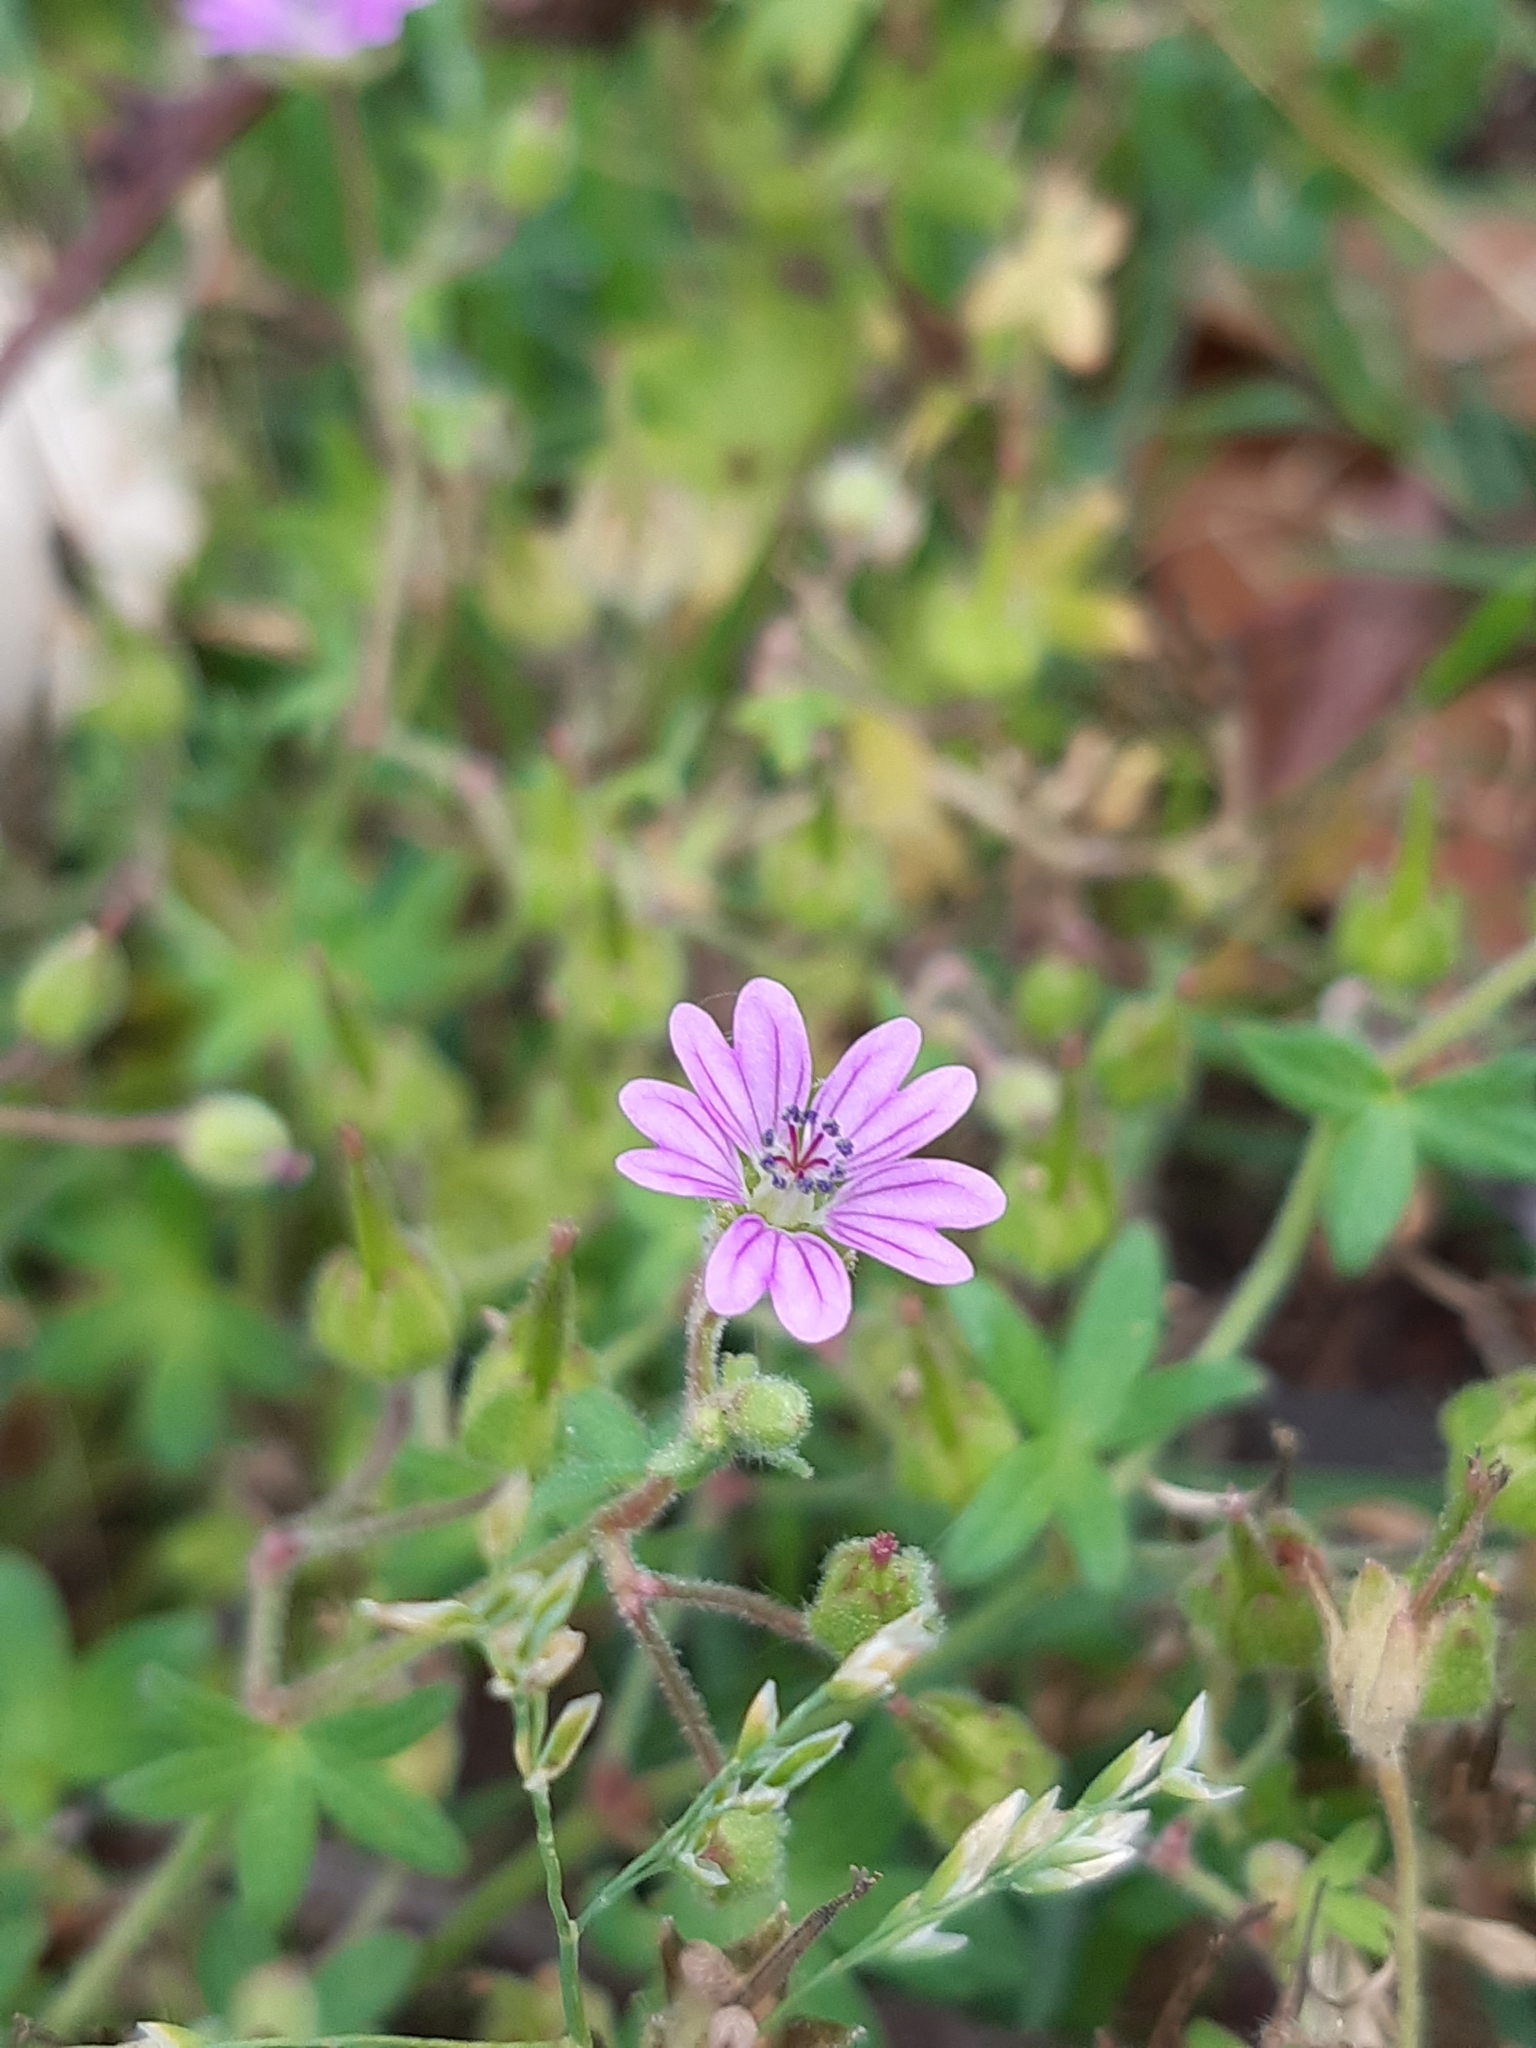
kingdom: Plantae
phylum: Tracheophyta
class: Magnoliopsida
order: Geraniales
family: Geraniaceae
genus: Geranium
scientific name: Geranium molle
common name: Dove's-foot crane's-bill
